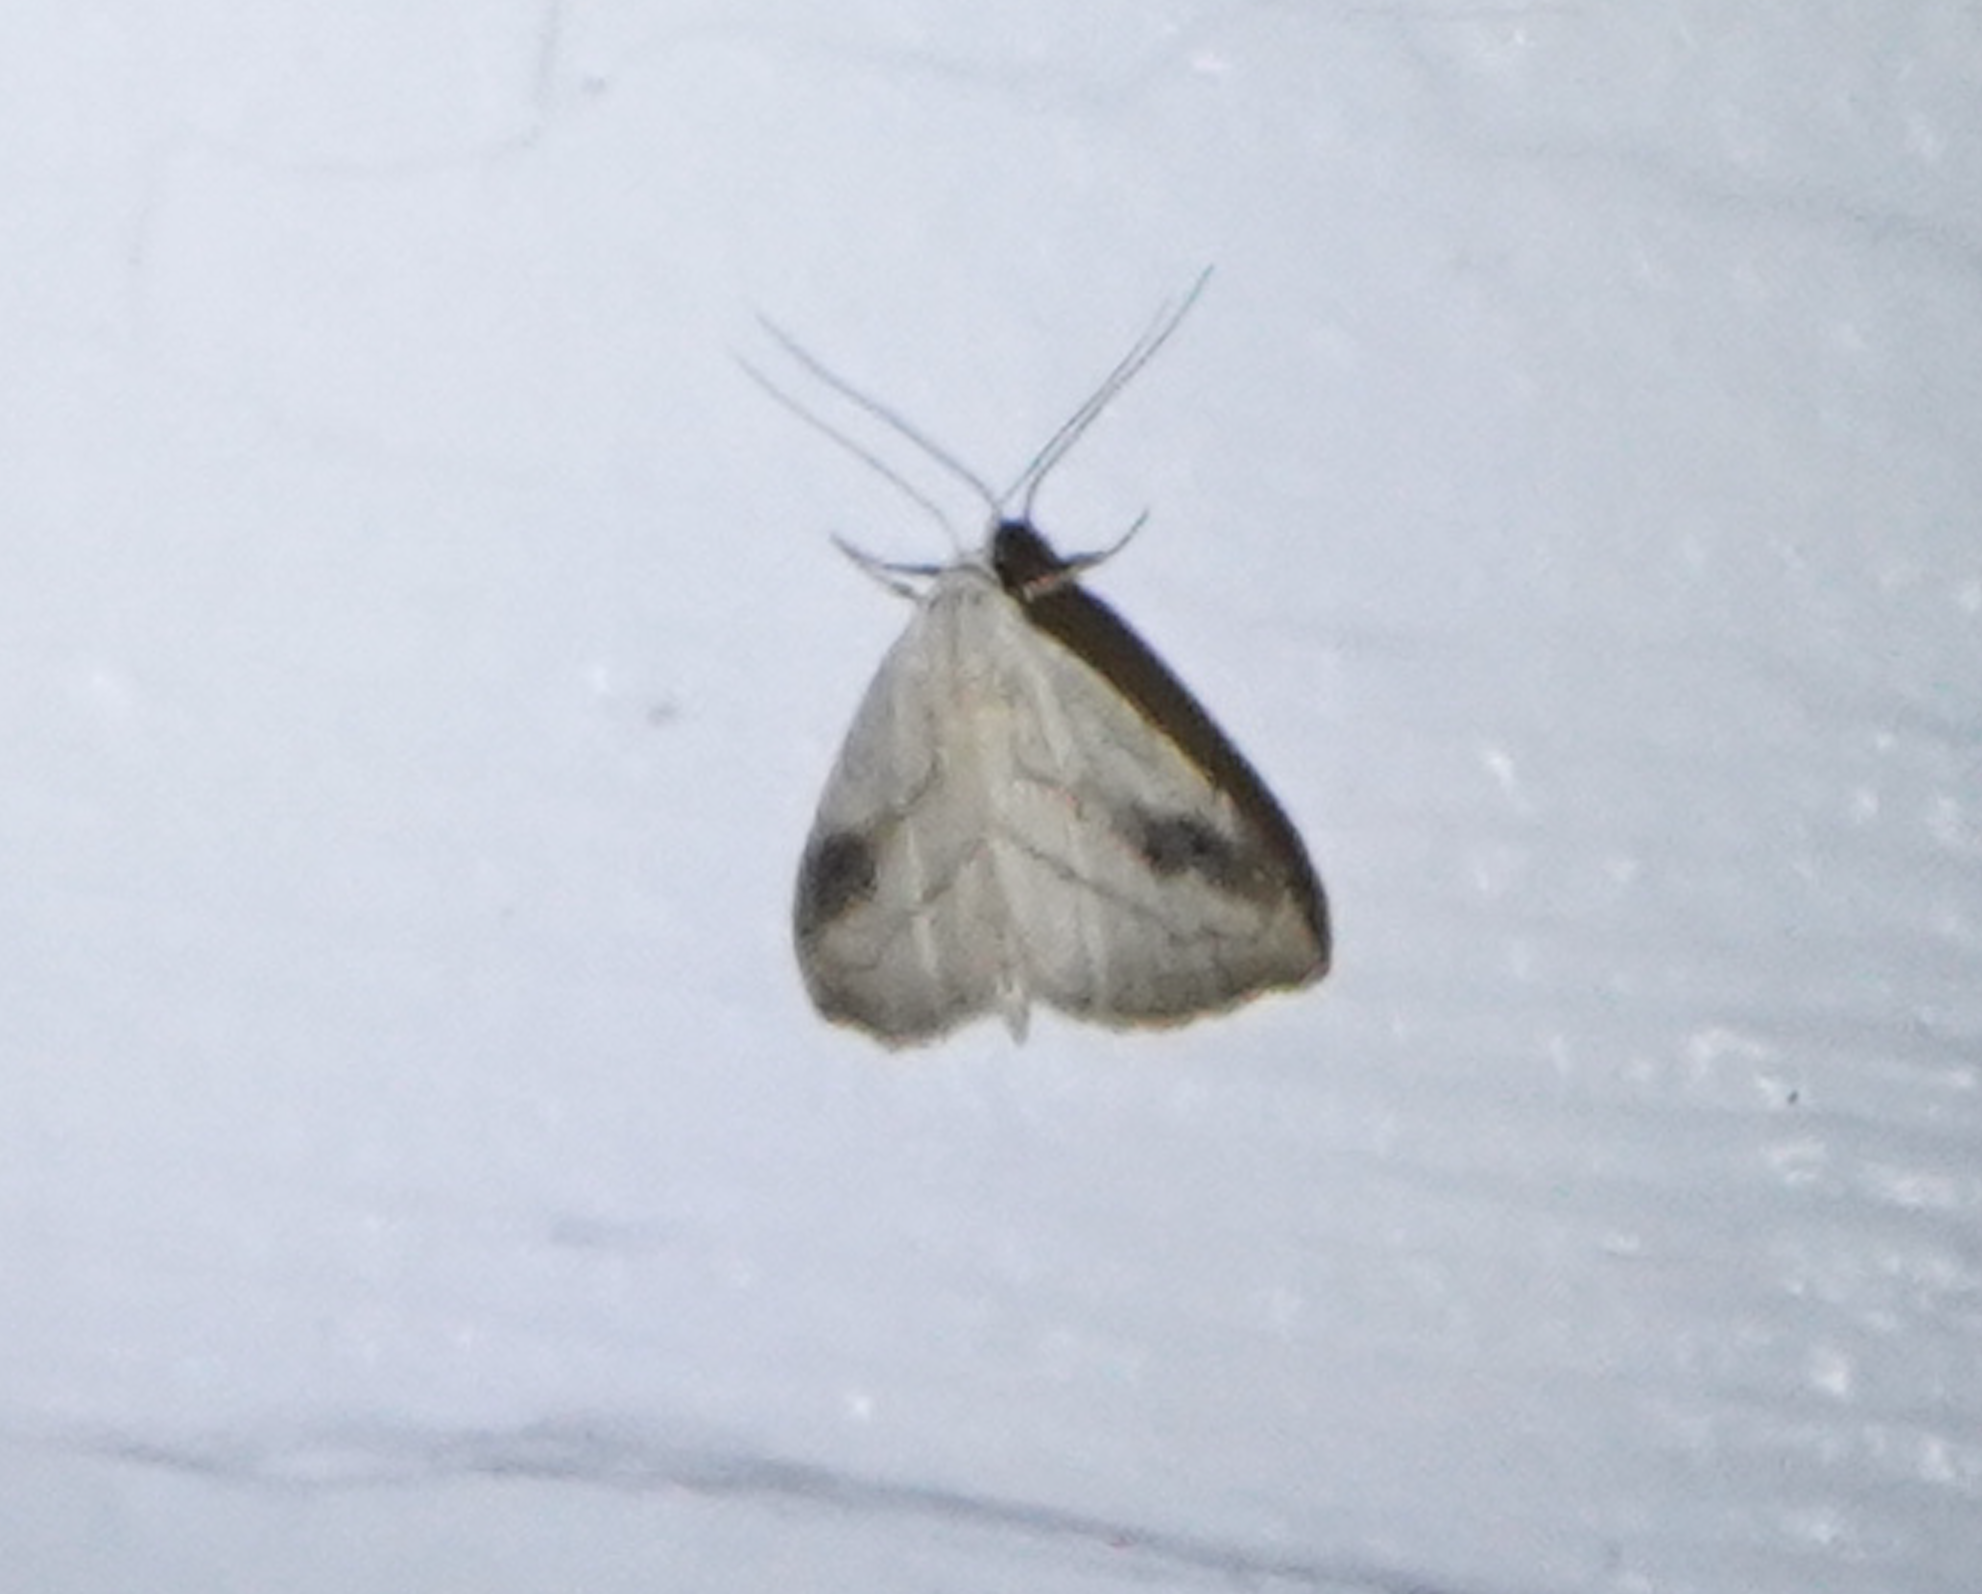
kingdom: Animalia
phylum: Arthropoda
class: Insecta
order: Lepidoptera
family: Erebidae
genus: Rivula
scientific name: Rivula propinqualis
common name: Spotted grass moth
